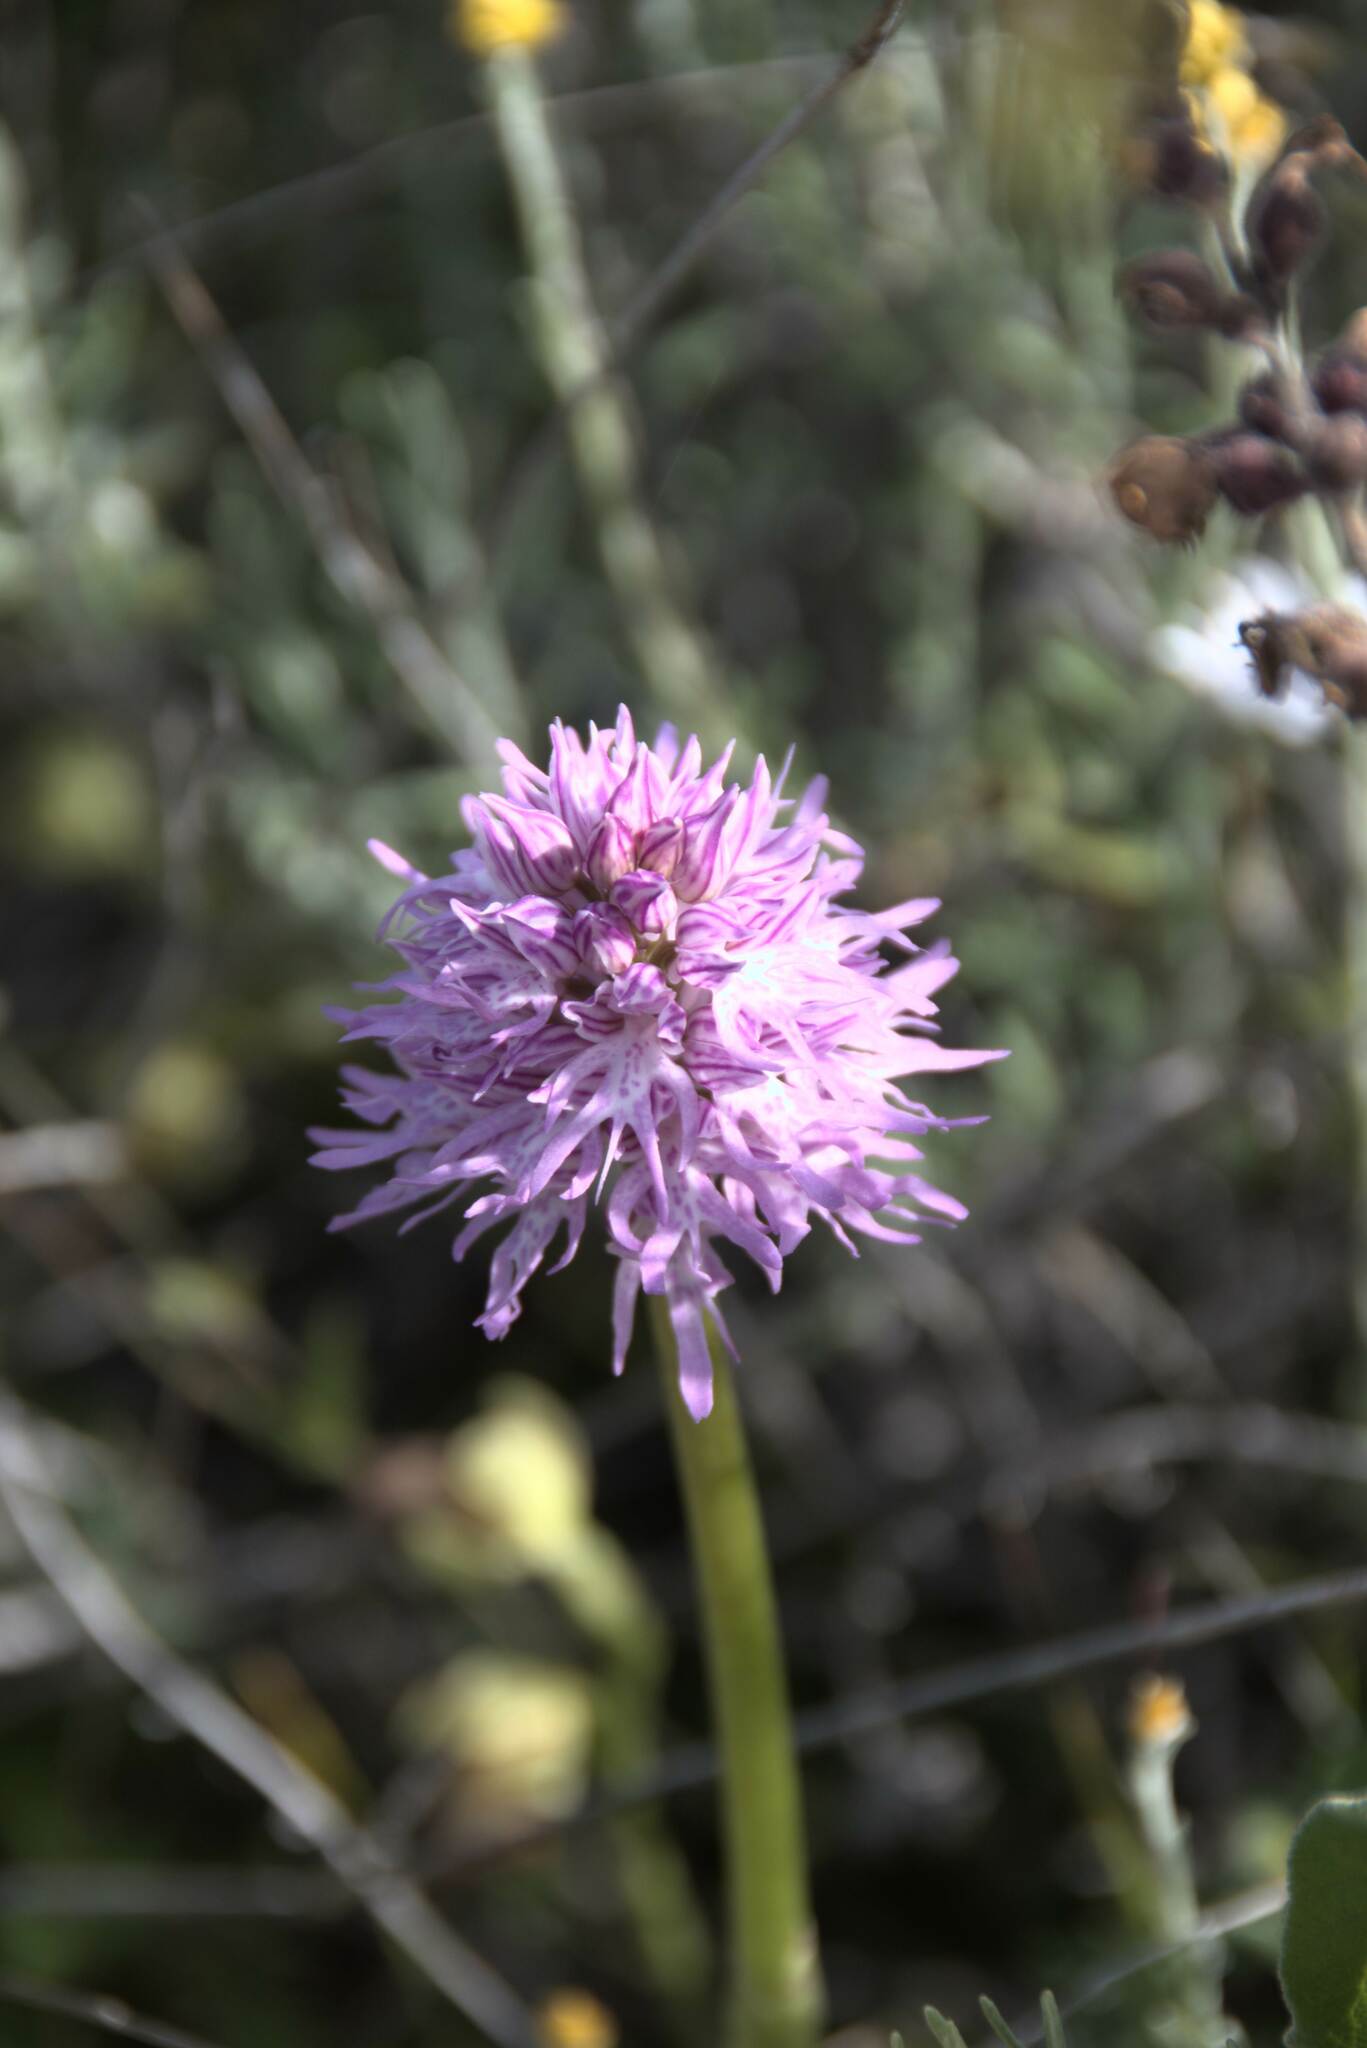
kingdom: Plantae
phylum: Tracheophyta
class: Liliopsida
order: Asparagales
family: Orchidaceae
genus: Orchis
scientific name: Orchis italica
